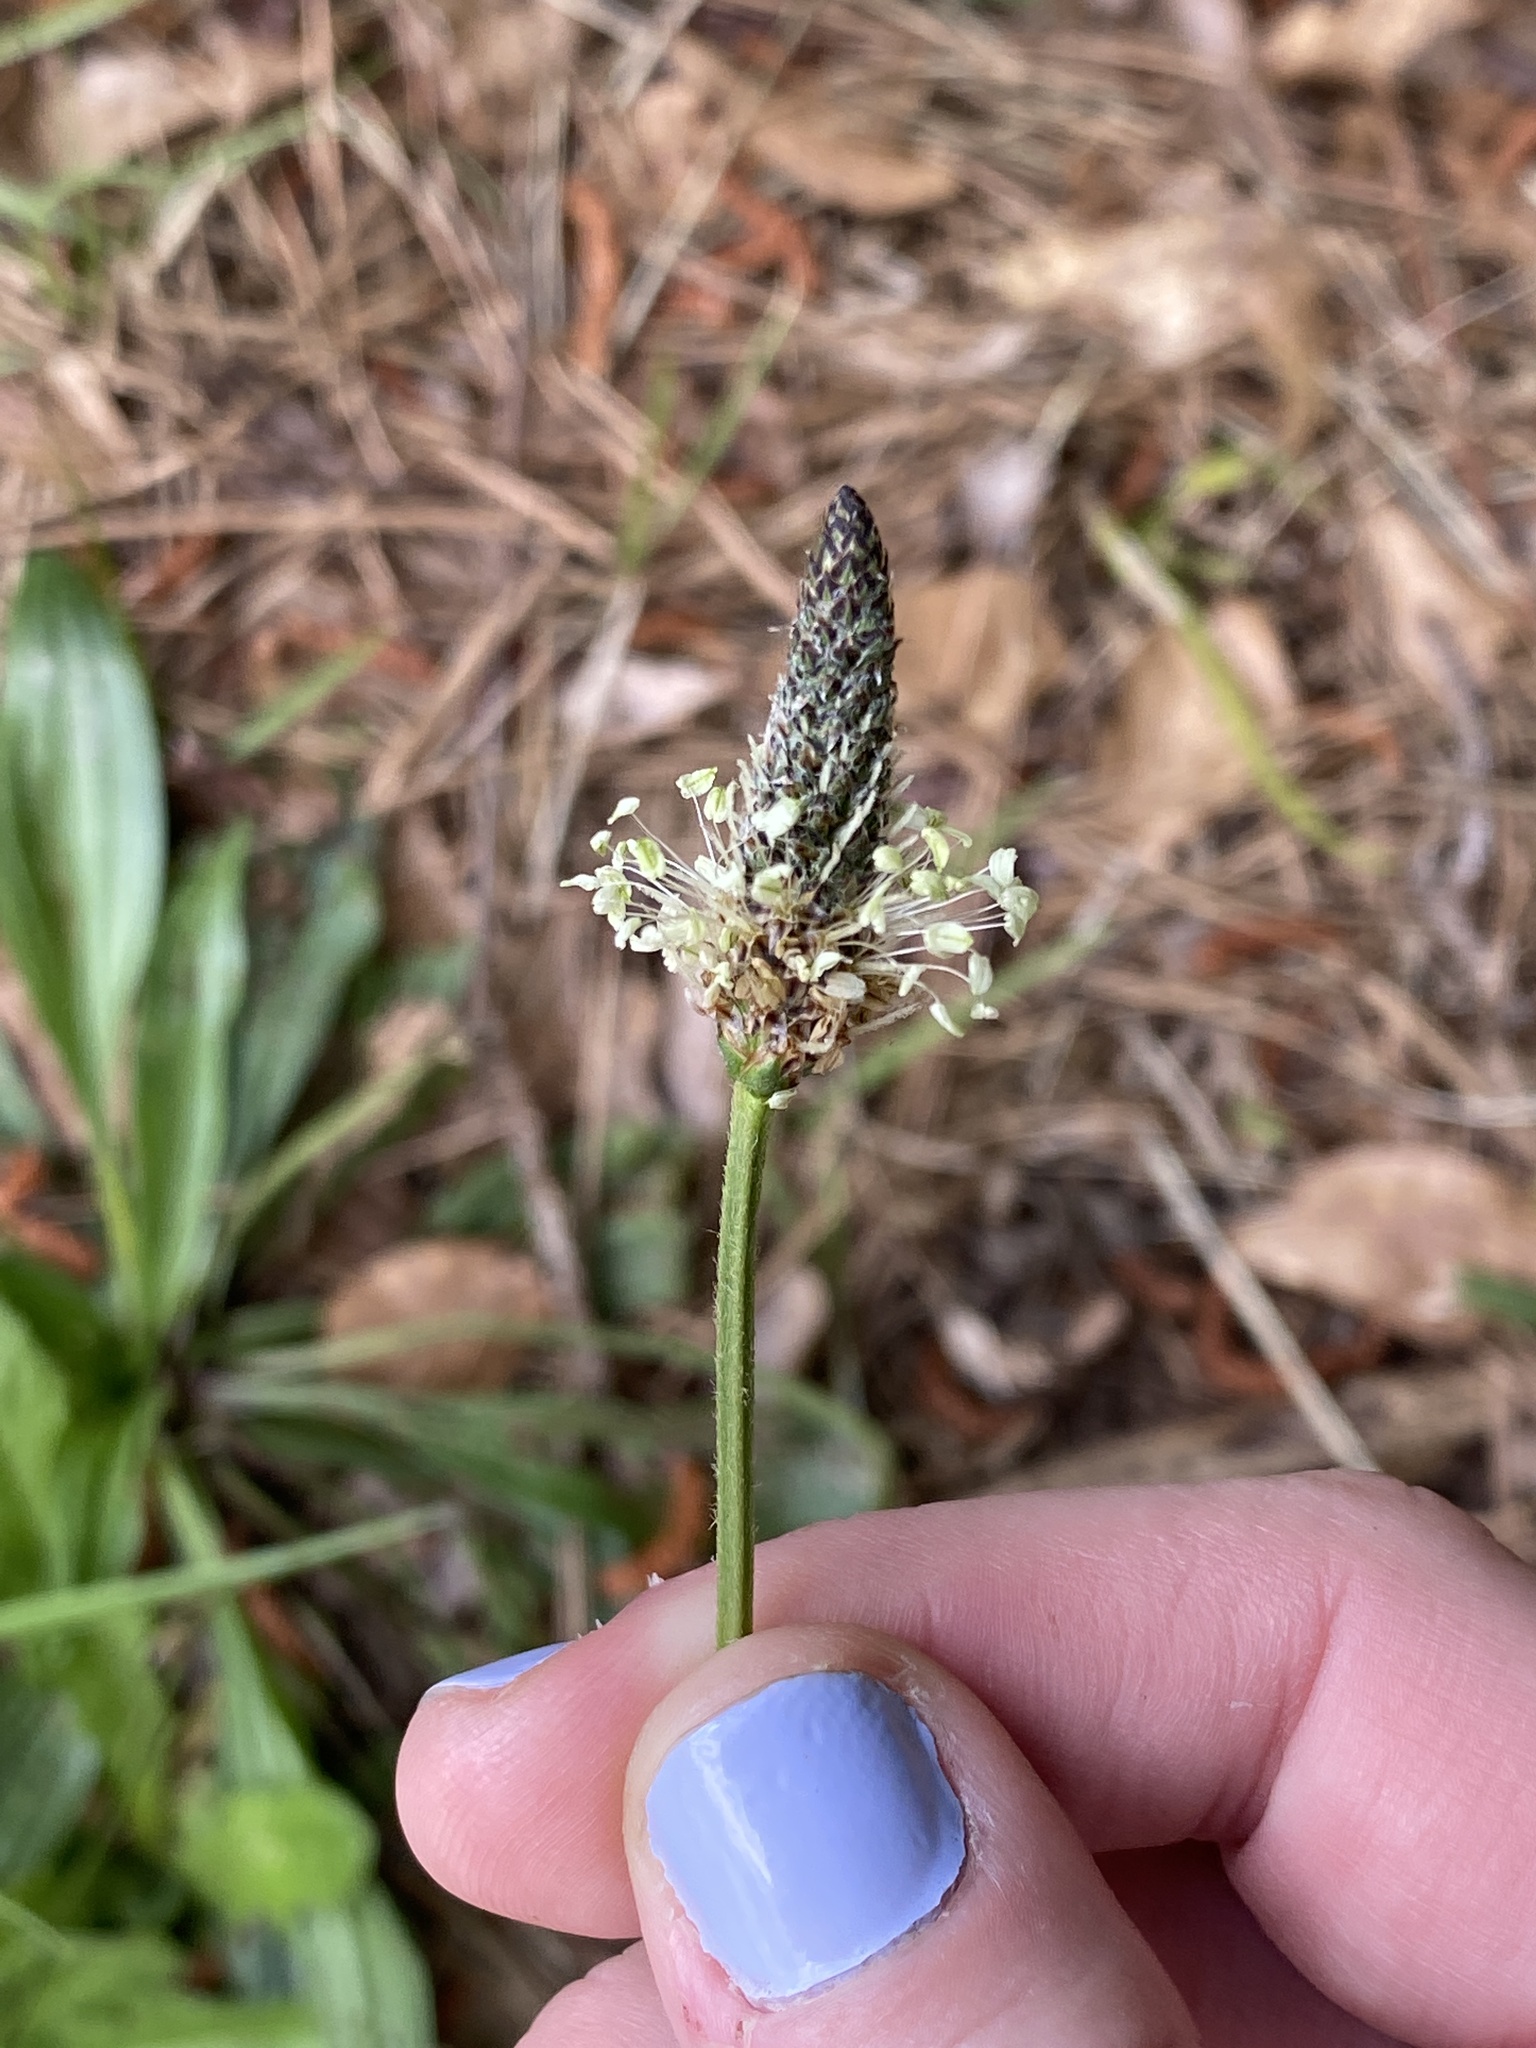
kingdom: Plantae
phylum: Tracheophyta
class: Magnoliopsida
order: Lamiales
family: Plantaginaceae
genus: Plantago
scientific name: Plantago lanceolata
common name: Ribwort plantain
